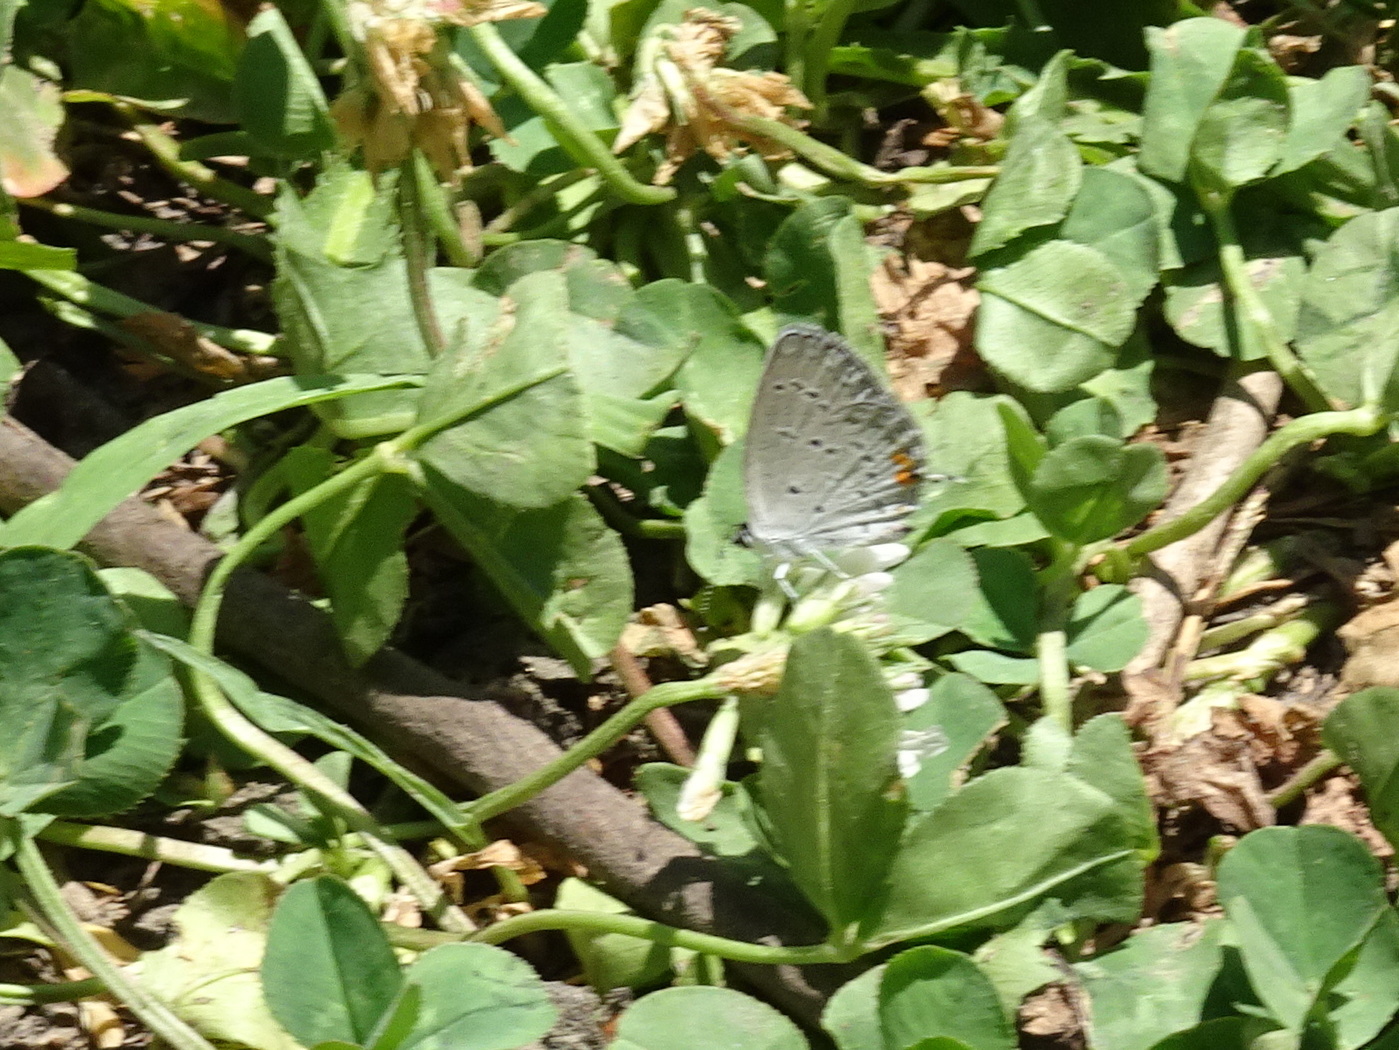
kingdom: Animalia
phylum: Arthropoda
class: Insecta
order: Lepidoptera
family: Lycaenidae
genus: Elkalyce
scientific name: Elkalyce comyntas
